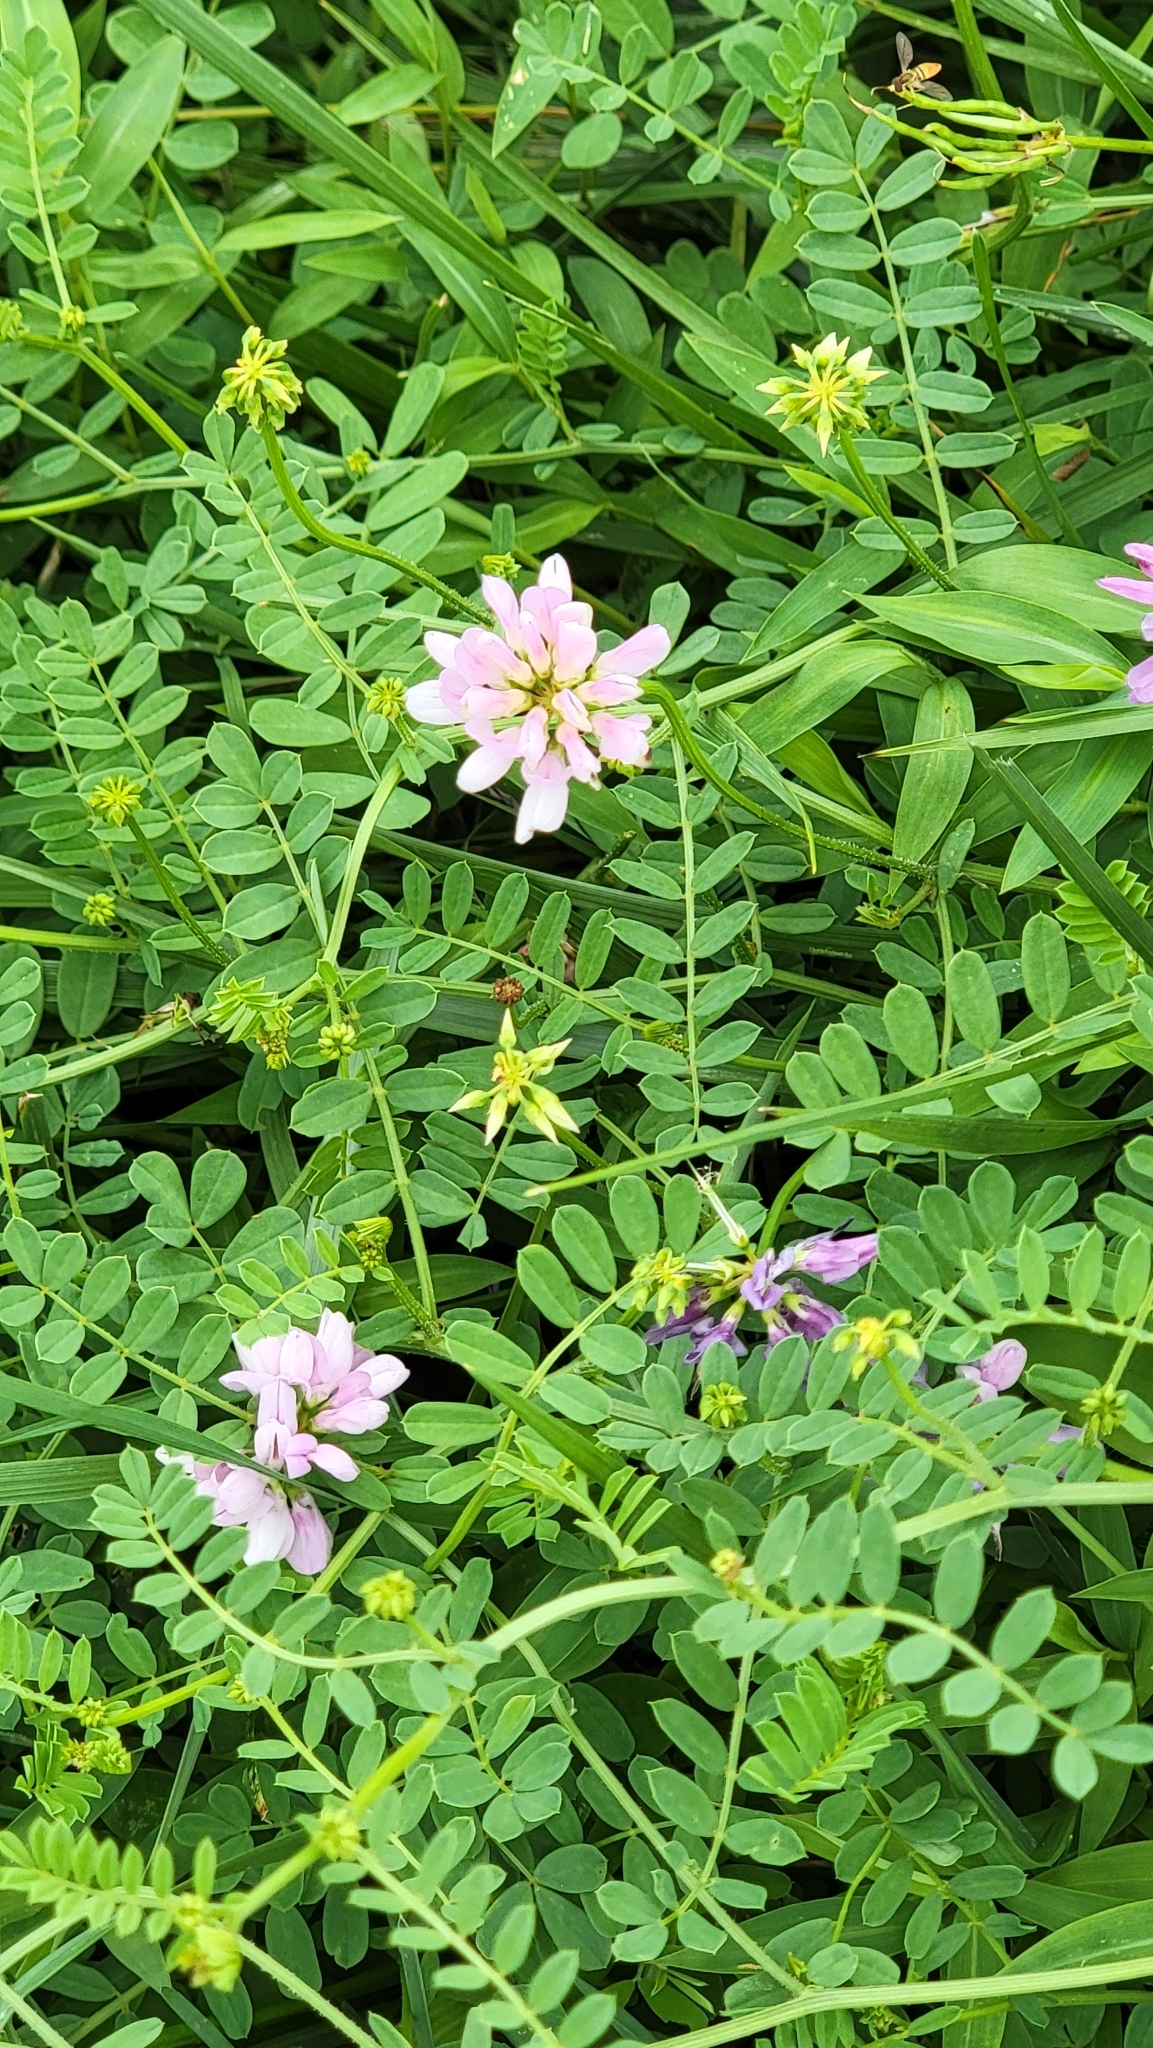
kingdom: Plantae
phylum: Tracheophyta
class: Magnoliopsida
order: Fabales
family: Fabaceae
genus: Coronilla
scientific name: Coronilla varia
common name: Crownvetch
